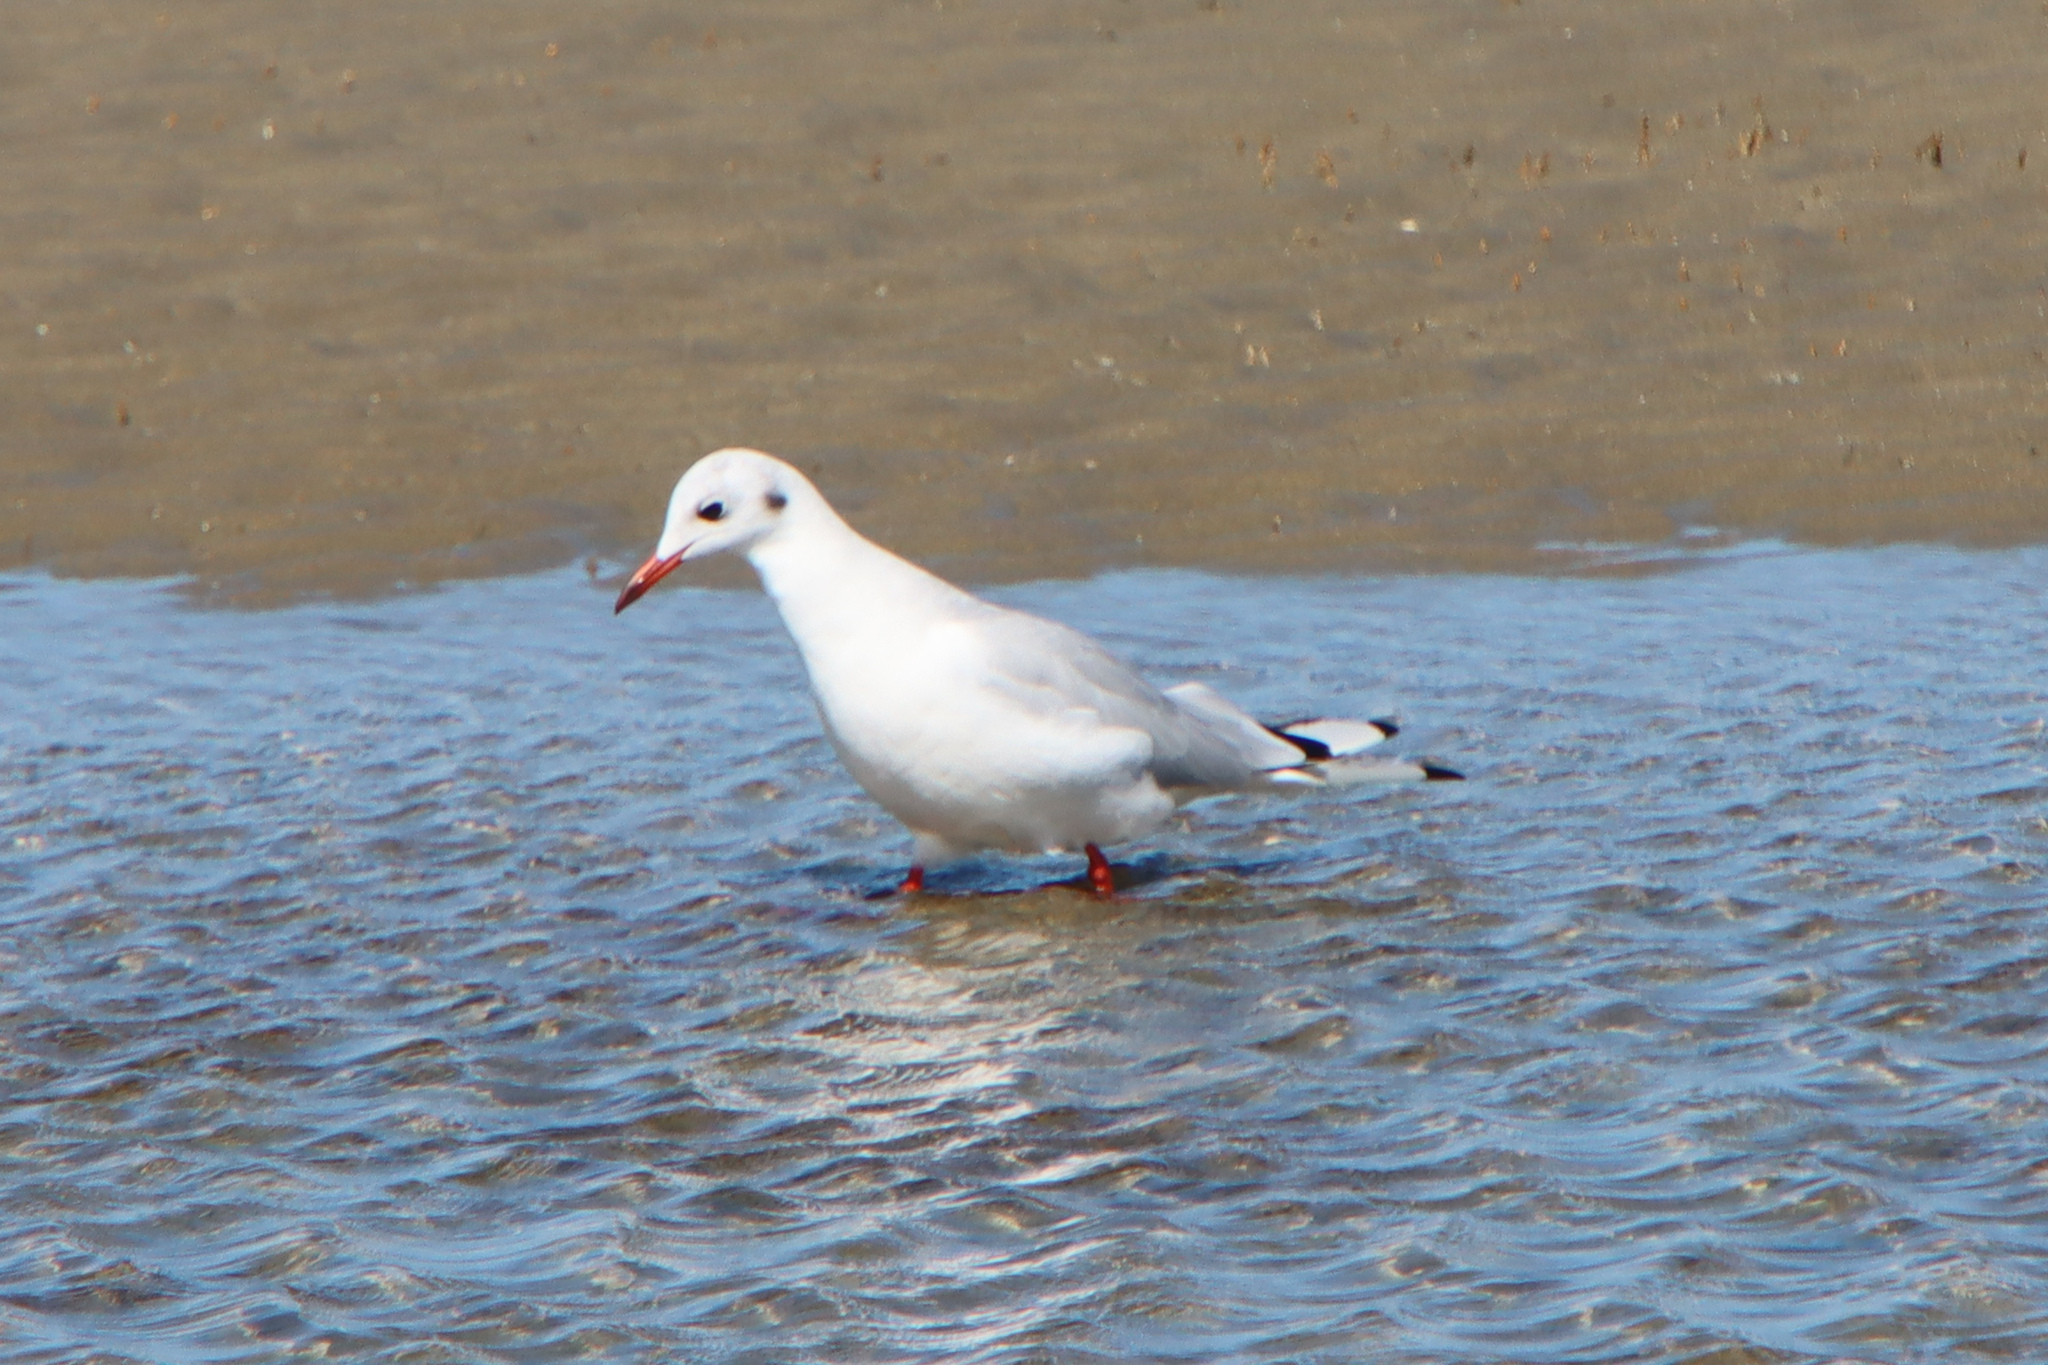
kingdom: Animalia
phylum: Chordata
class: Aves
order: Charadriiformes
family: Laridae
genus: Chroicocephalus
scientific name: Chroicocephalus ridibundus
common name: Black-headed gull
